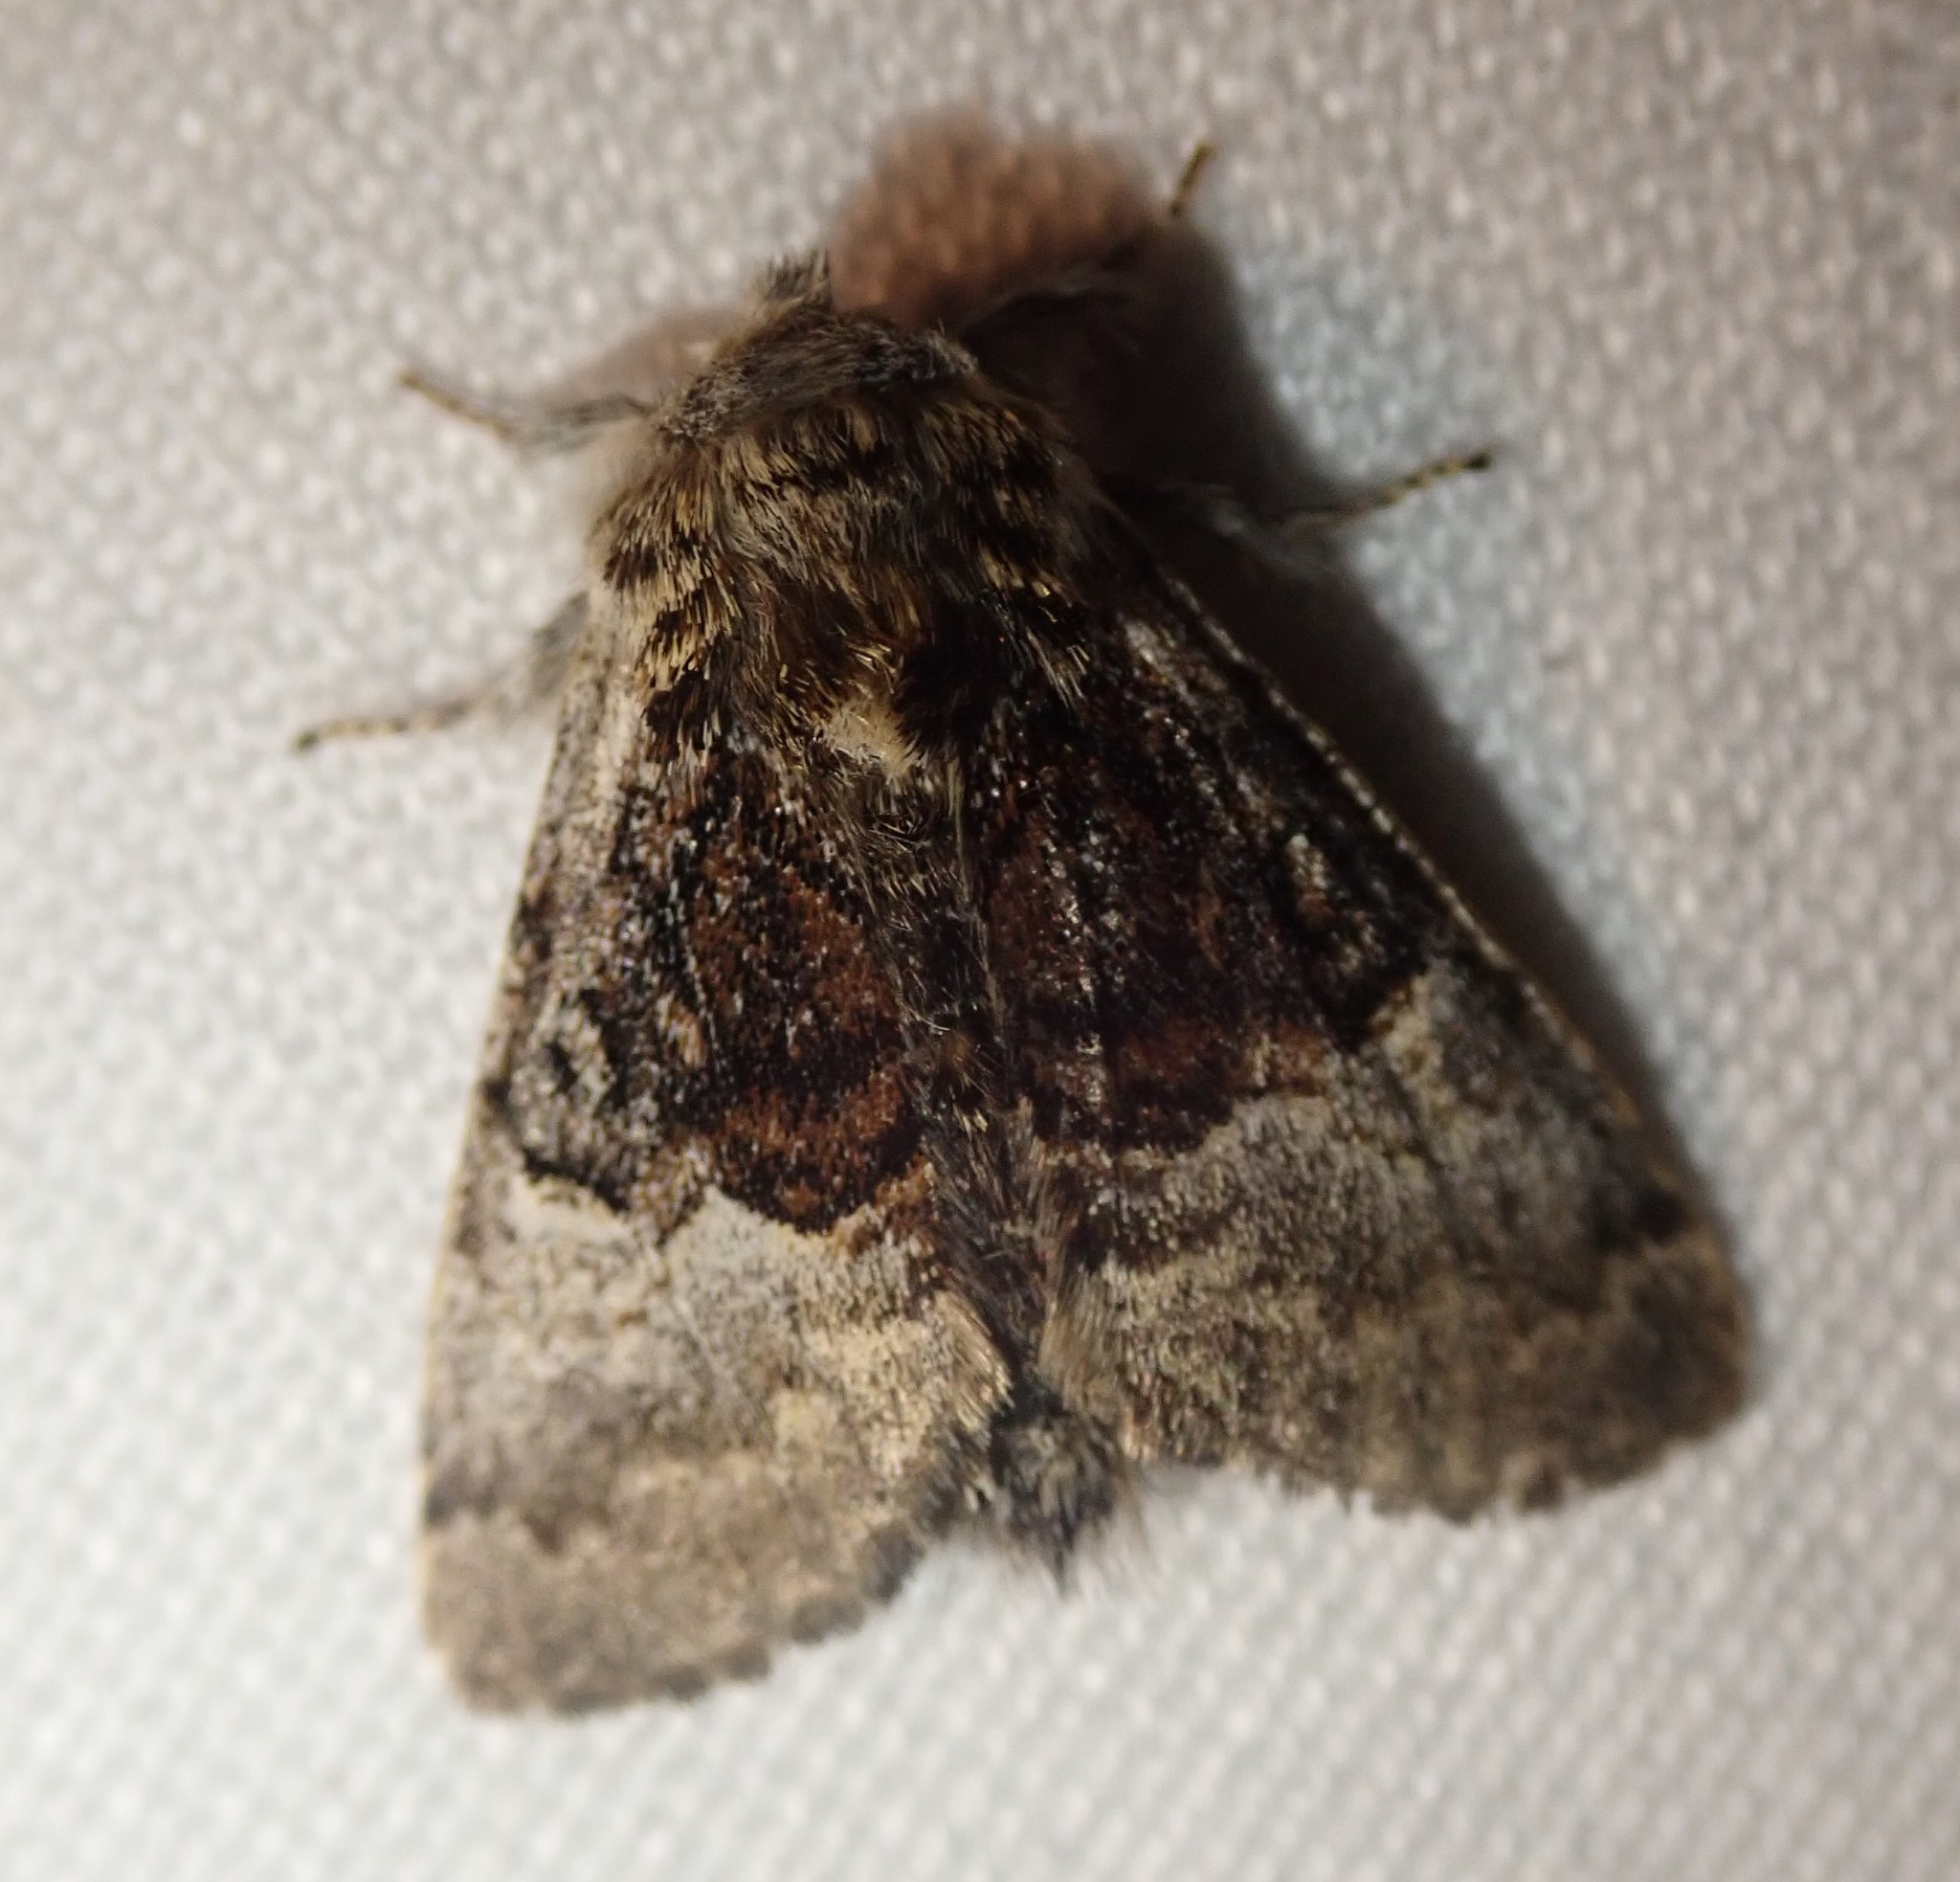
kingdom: Animalia
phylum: Arthropoda
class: Insecta
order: Lepidoptera
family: Noctuidae
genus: Colocasia
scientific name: Colocasia coryli
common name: Nut-tree tussock
